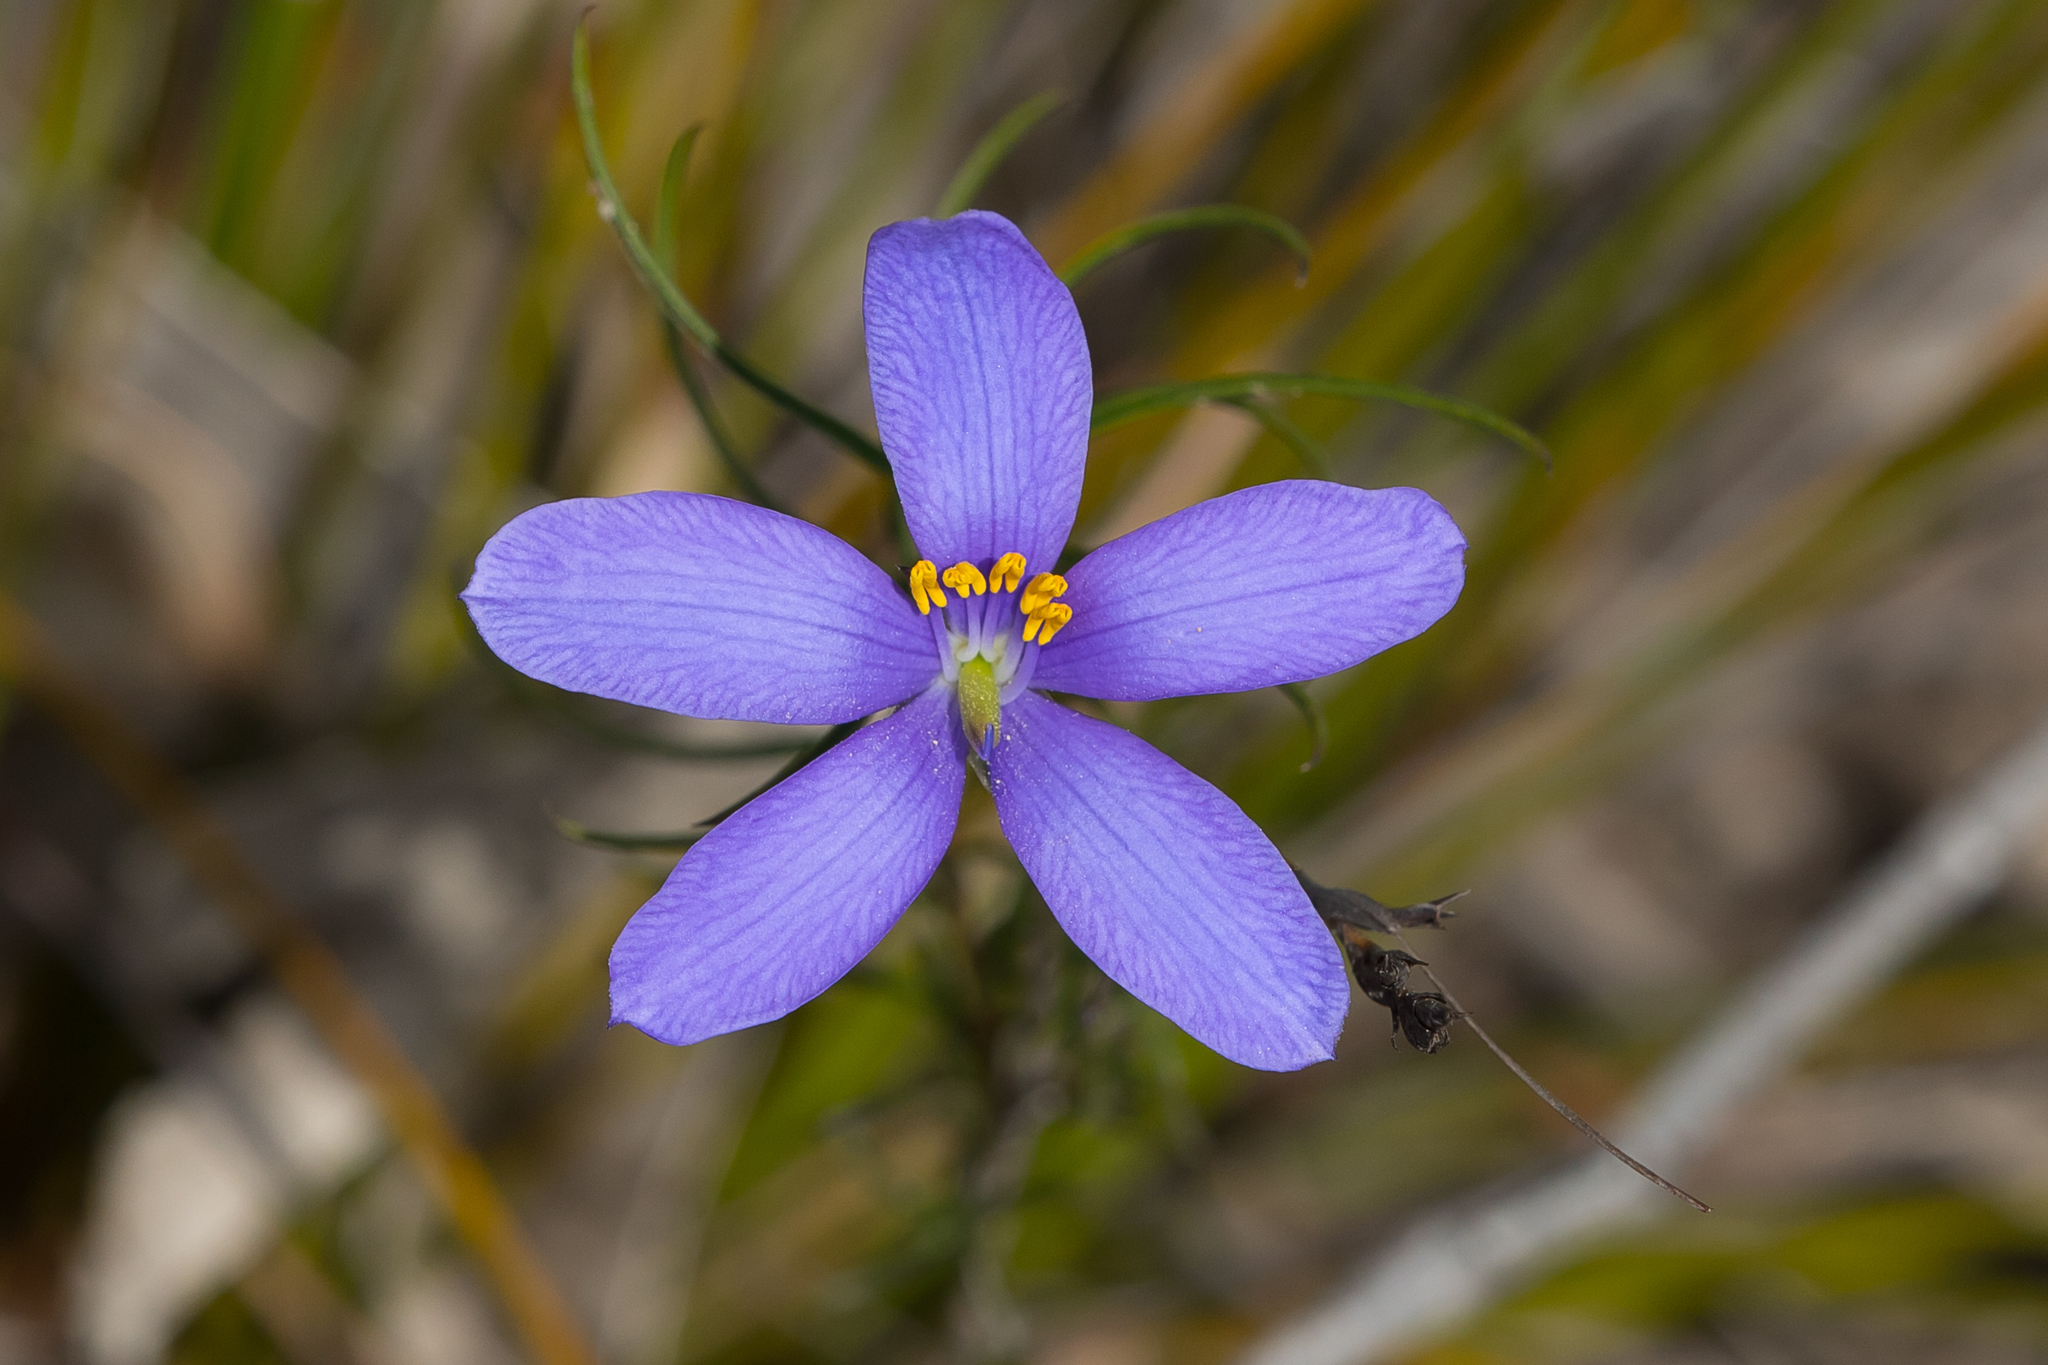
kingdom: Plantae
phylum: Tracheophyta
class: Magnoliopsida
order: Apiales
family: Pittosporaceae
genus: Cheiranthera
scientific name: Cheiranthera alternifolia
